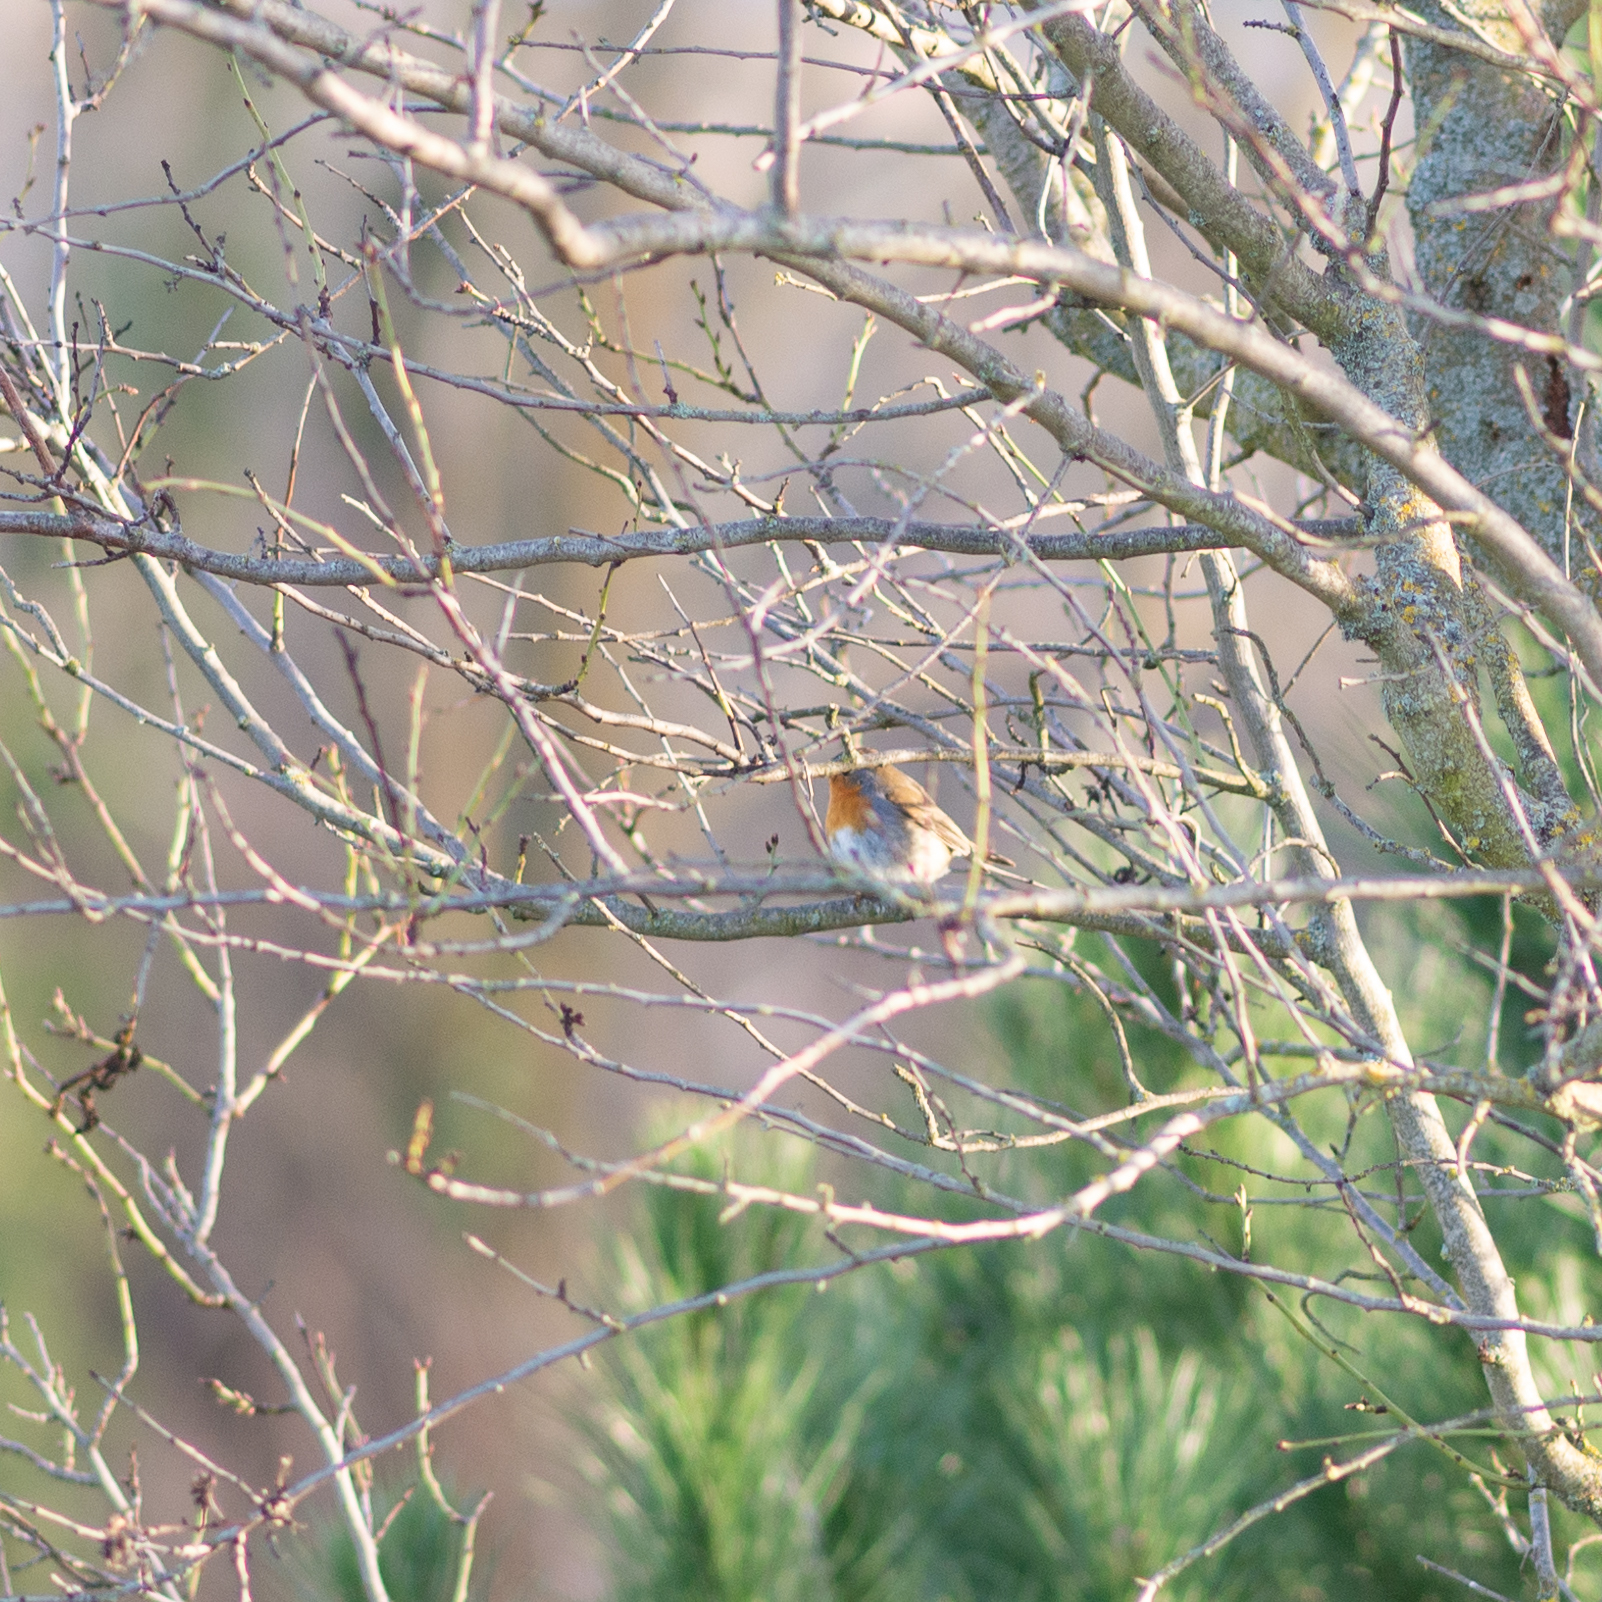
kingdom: Animalia
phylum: Chordata
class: Aves
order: Passeriformes
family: Muscicapidae
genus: Erithacus
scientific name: Erithacus rubecula
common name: European robin
